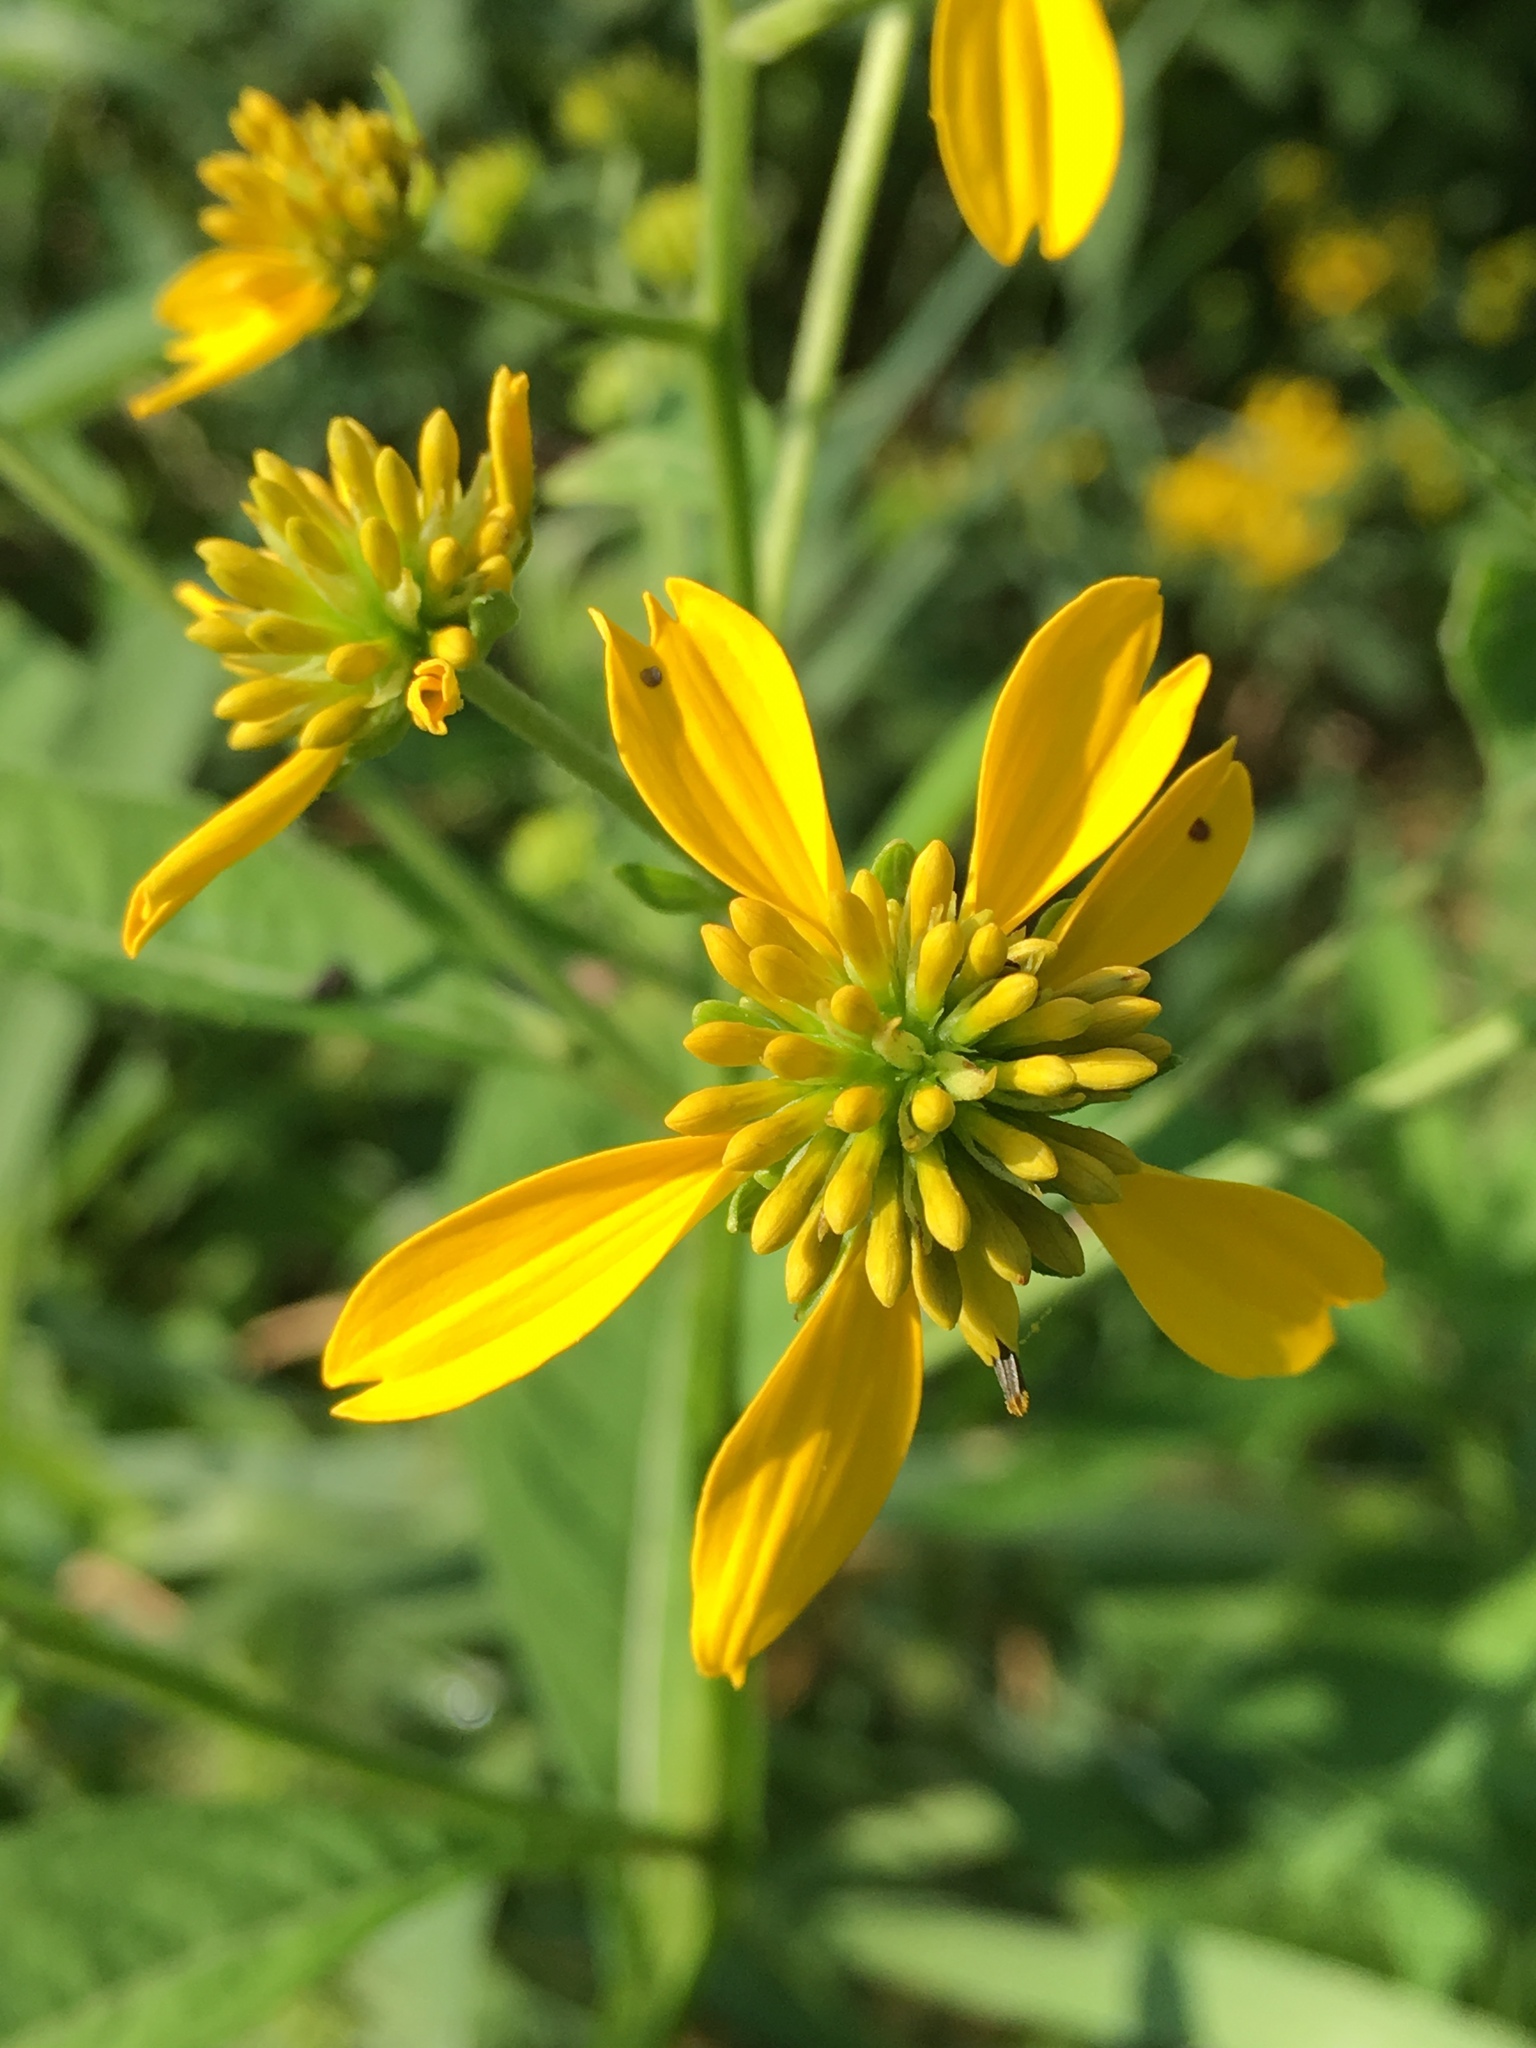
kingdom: Plantae
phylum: Tracheophyta
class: Magnoliopsida
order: Asterales
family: Asteraceae
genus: Verbesina
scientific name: Verbesina alternifolia
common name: Wingstem
